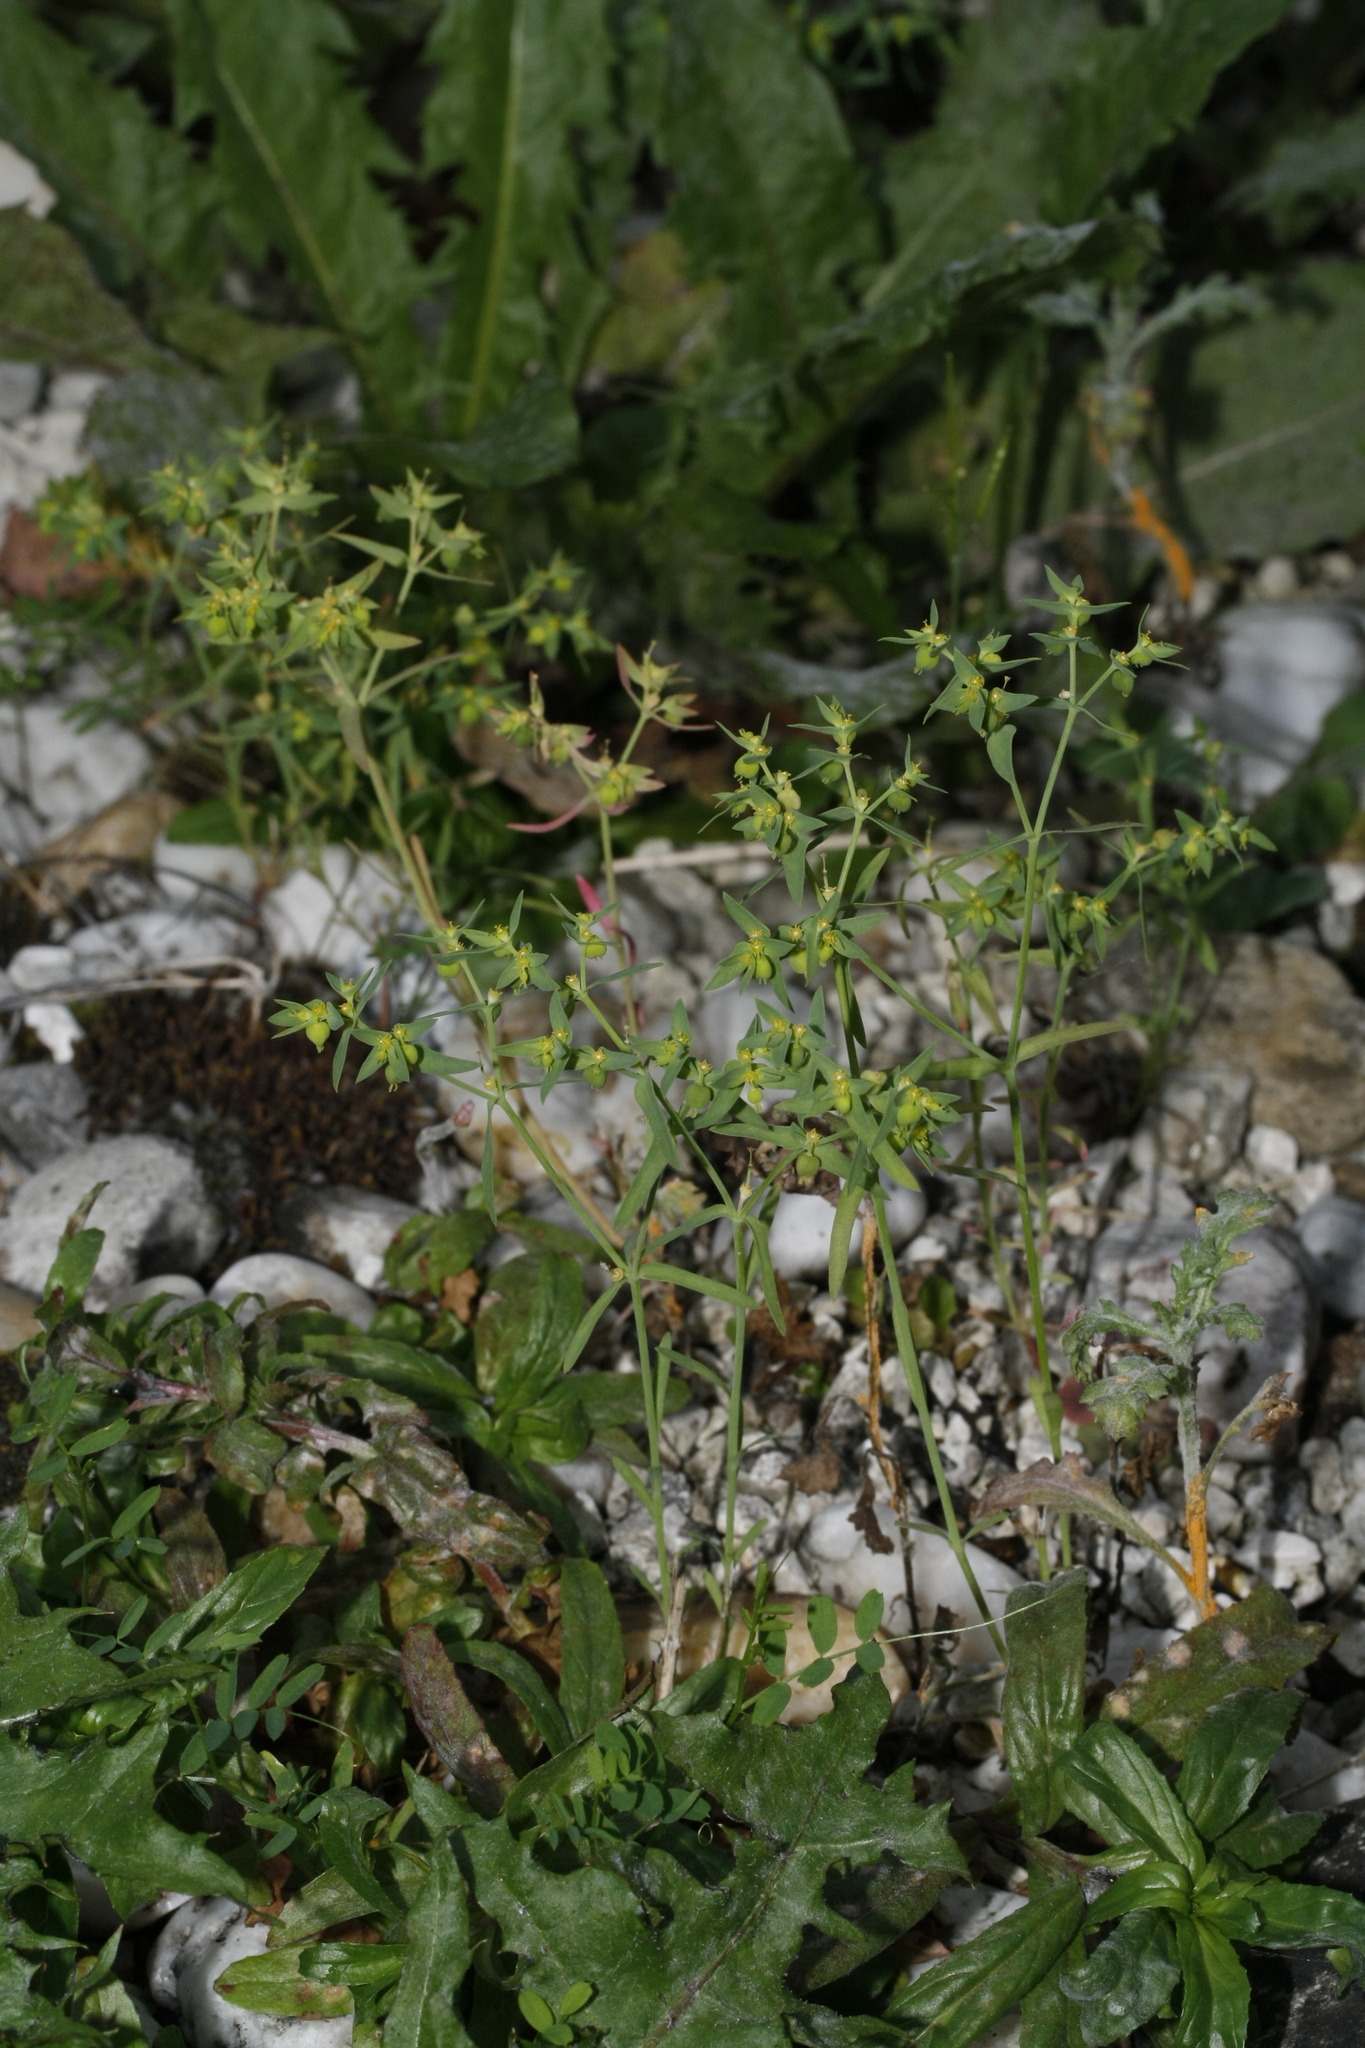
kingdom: Plantae
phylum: Tracheophyta
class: Magnoliopsida
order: Malpighiales
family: Euphorbiaceae
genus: Euphorbia
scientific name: Euphorbia exigua
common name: Dwarf spurge
